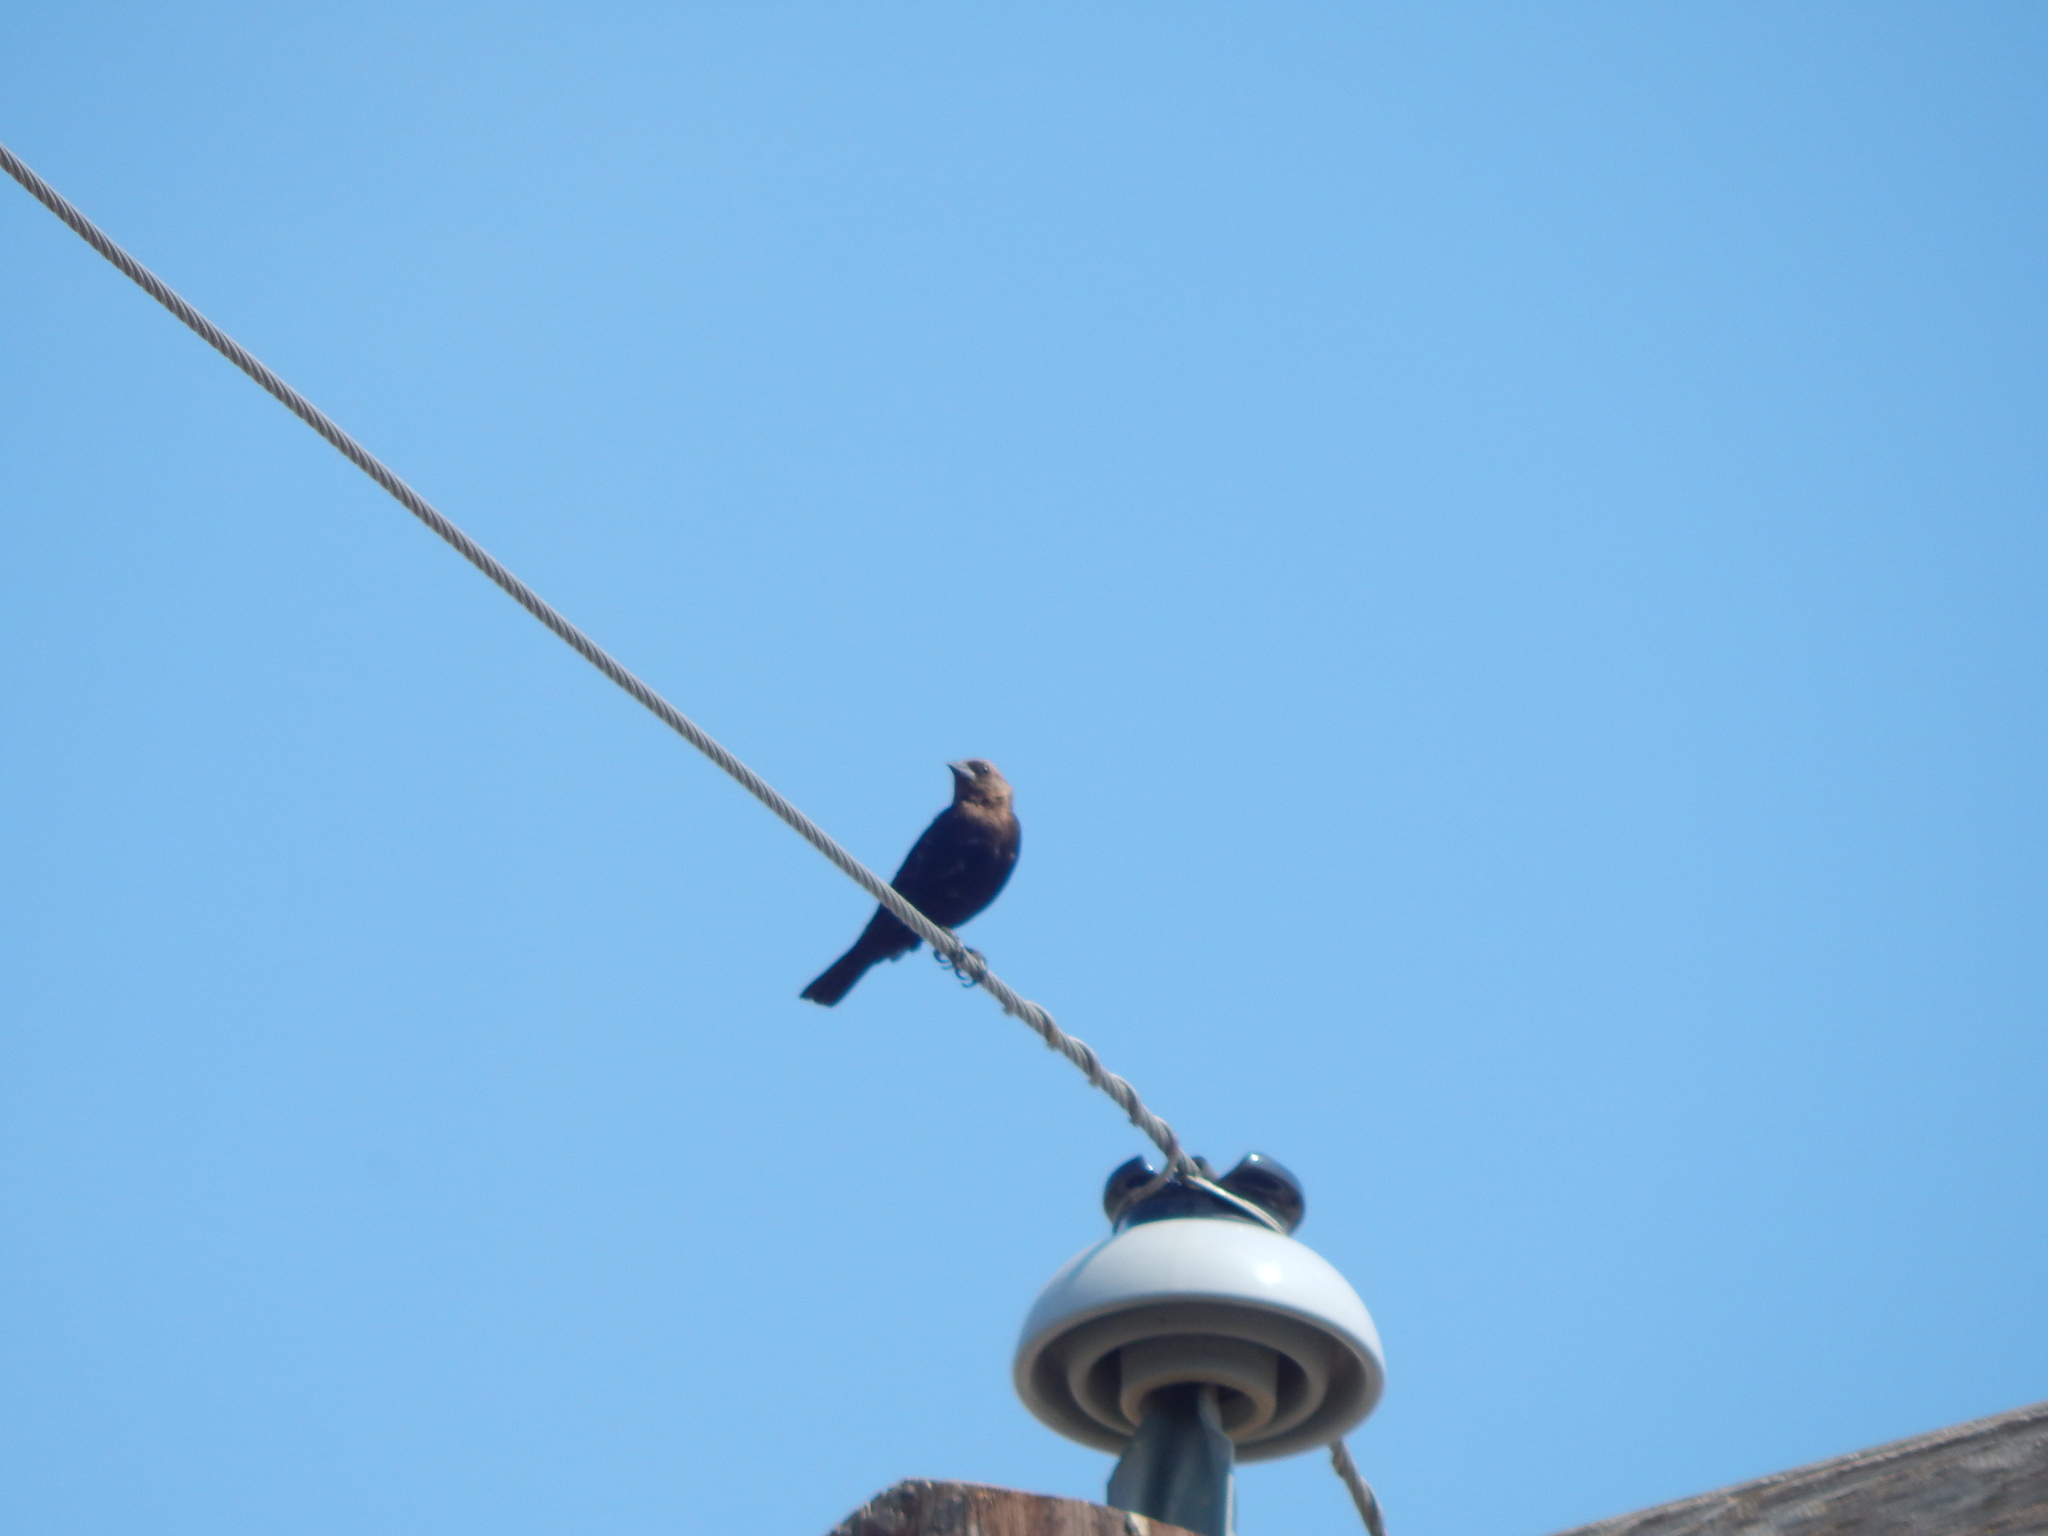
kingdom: Animalia
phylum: Chordata
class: Aves
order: Passeriformes
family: Icteridae
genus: Molothrus
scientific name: Molothrus ater
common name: Brown-headed cowbird
